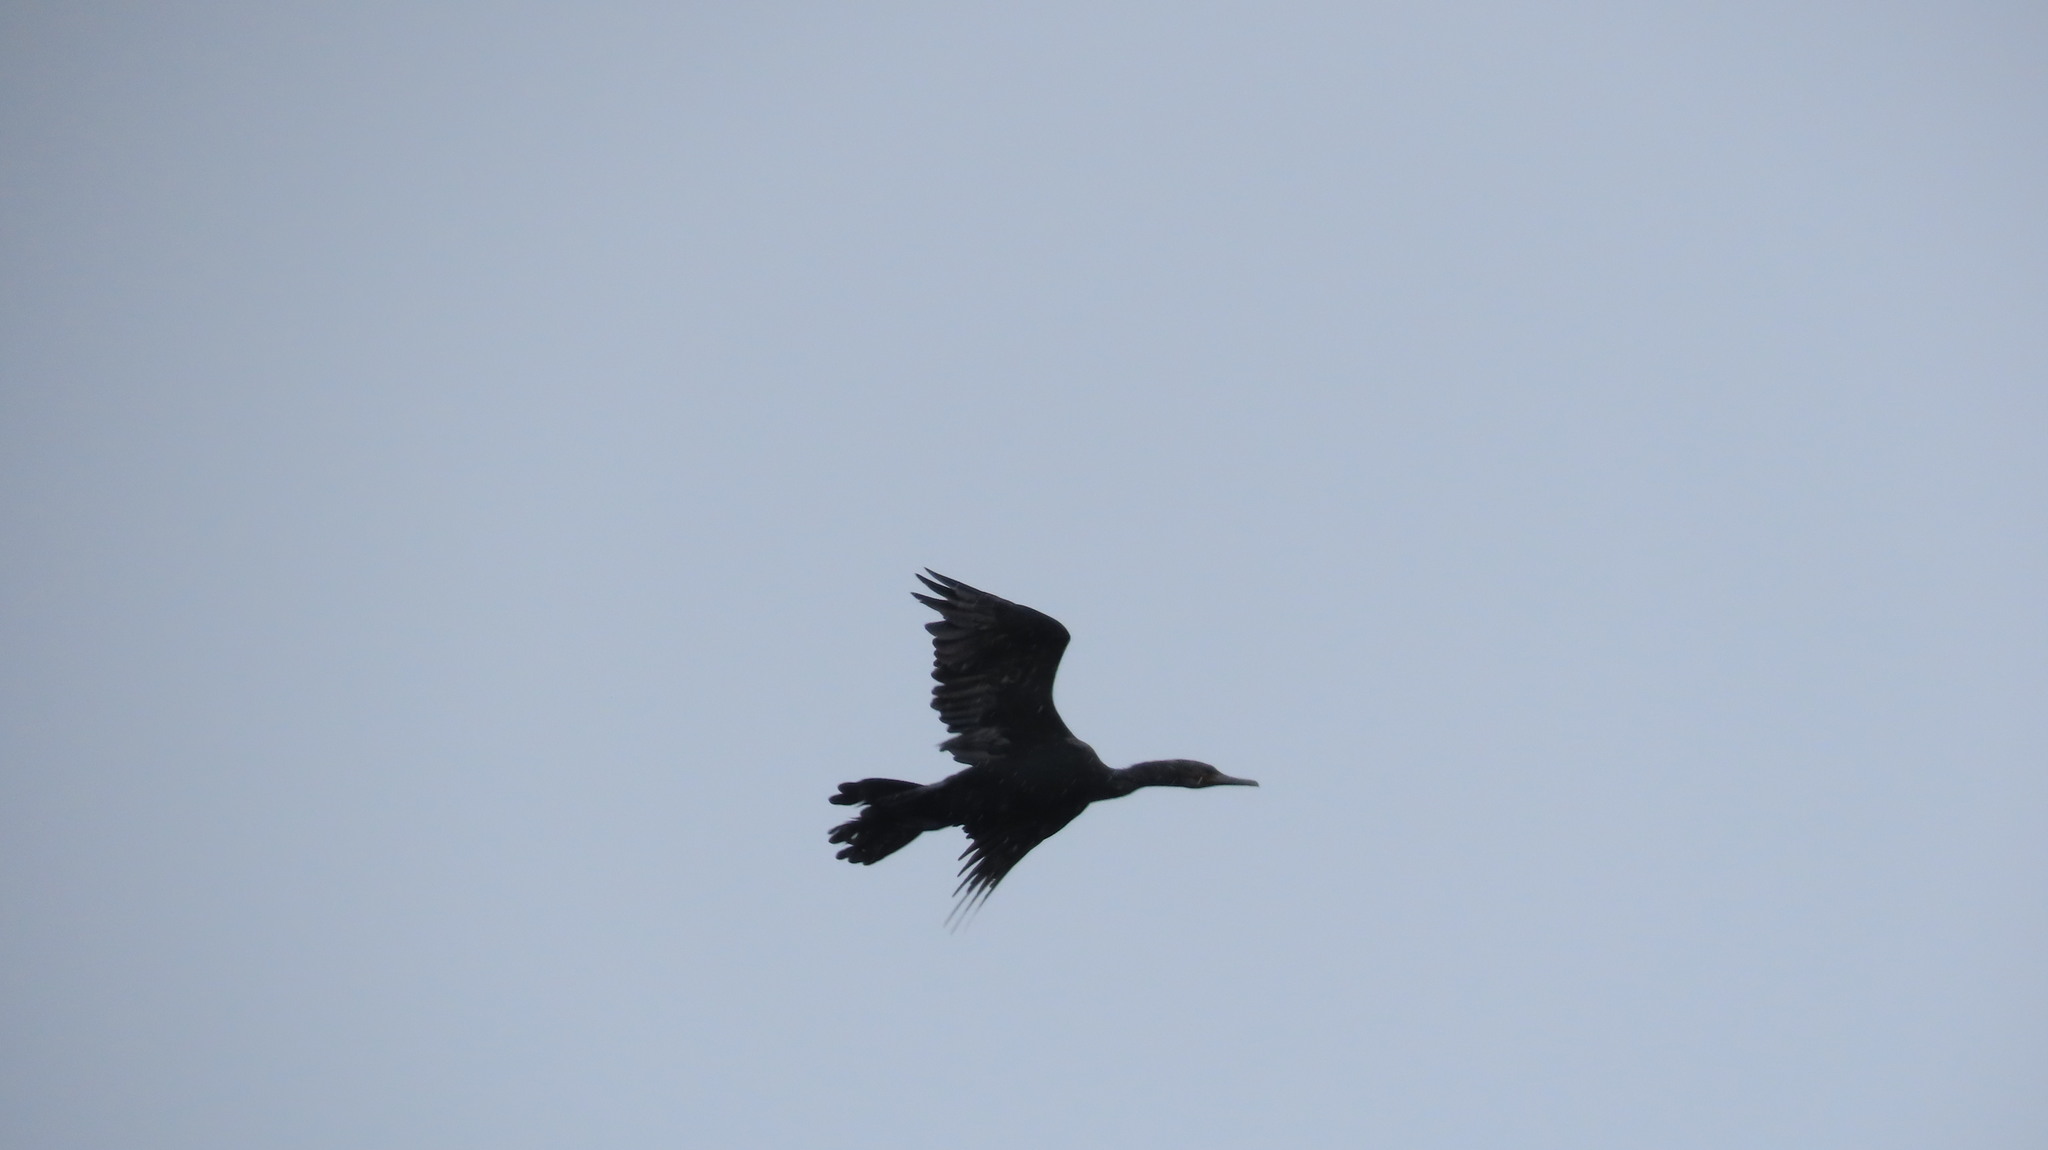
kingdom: Animalia
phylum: Chordata
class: Aves
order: Suliformes
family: Phalacrocoracidae
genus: Phalacrocorax
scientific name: Phalacrocorax fuscicollis
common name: Indian cormorant
